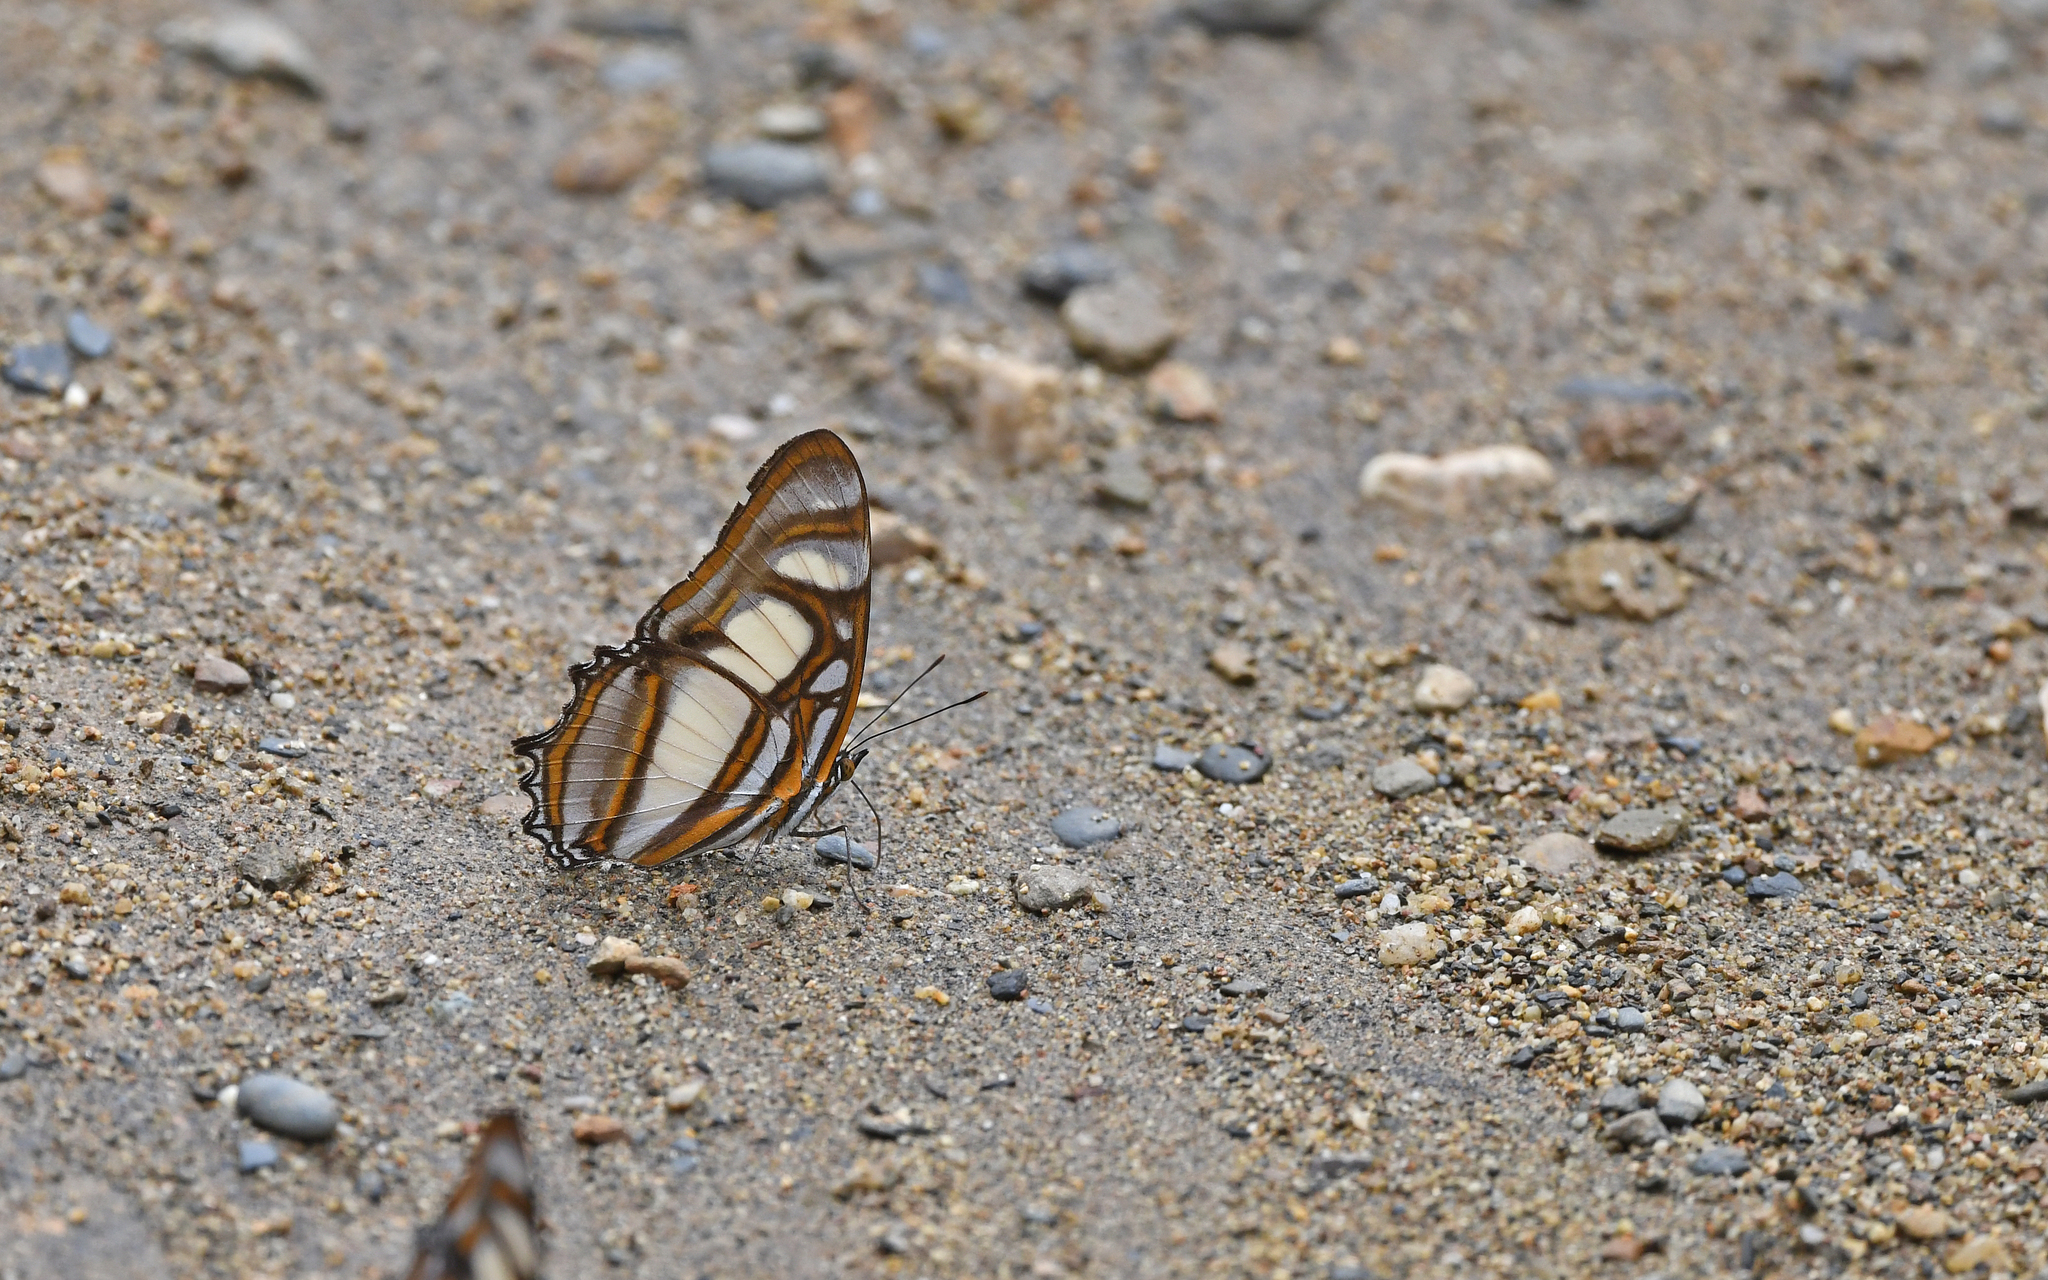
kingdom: Animalia
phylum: Arthropoda
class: Insecta
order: Lepidoptera
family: Nymphalidae
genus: Metamorpha
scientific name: Metamorpha elissa
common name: Elissa page
